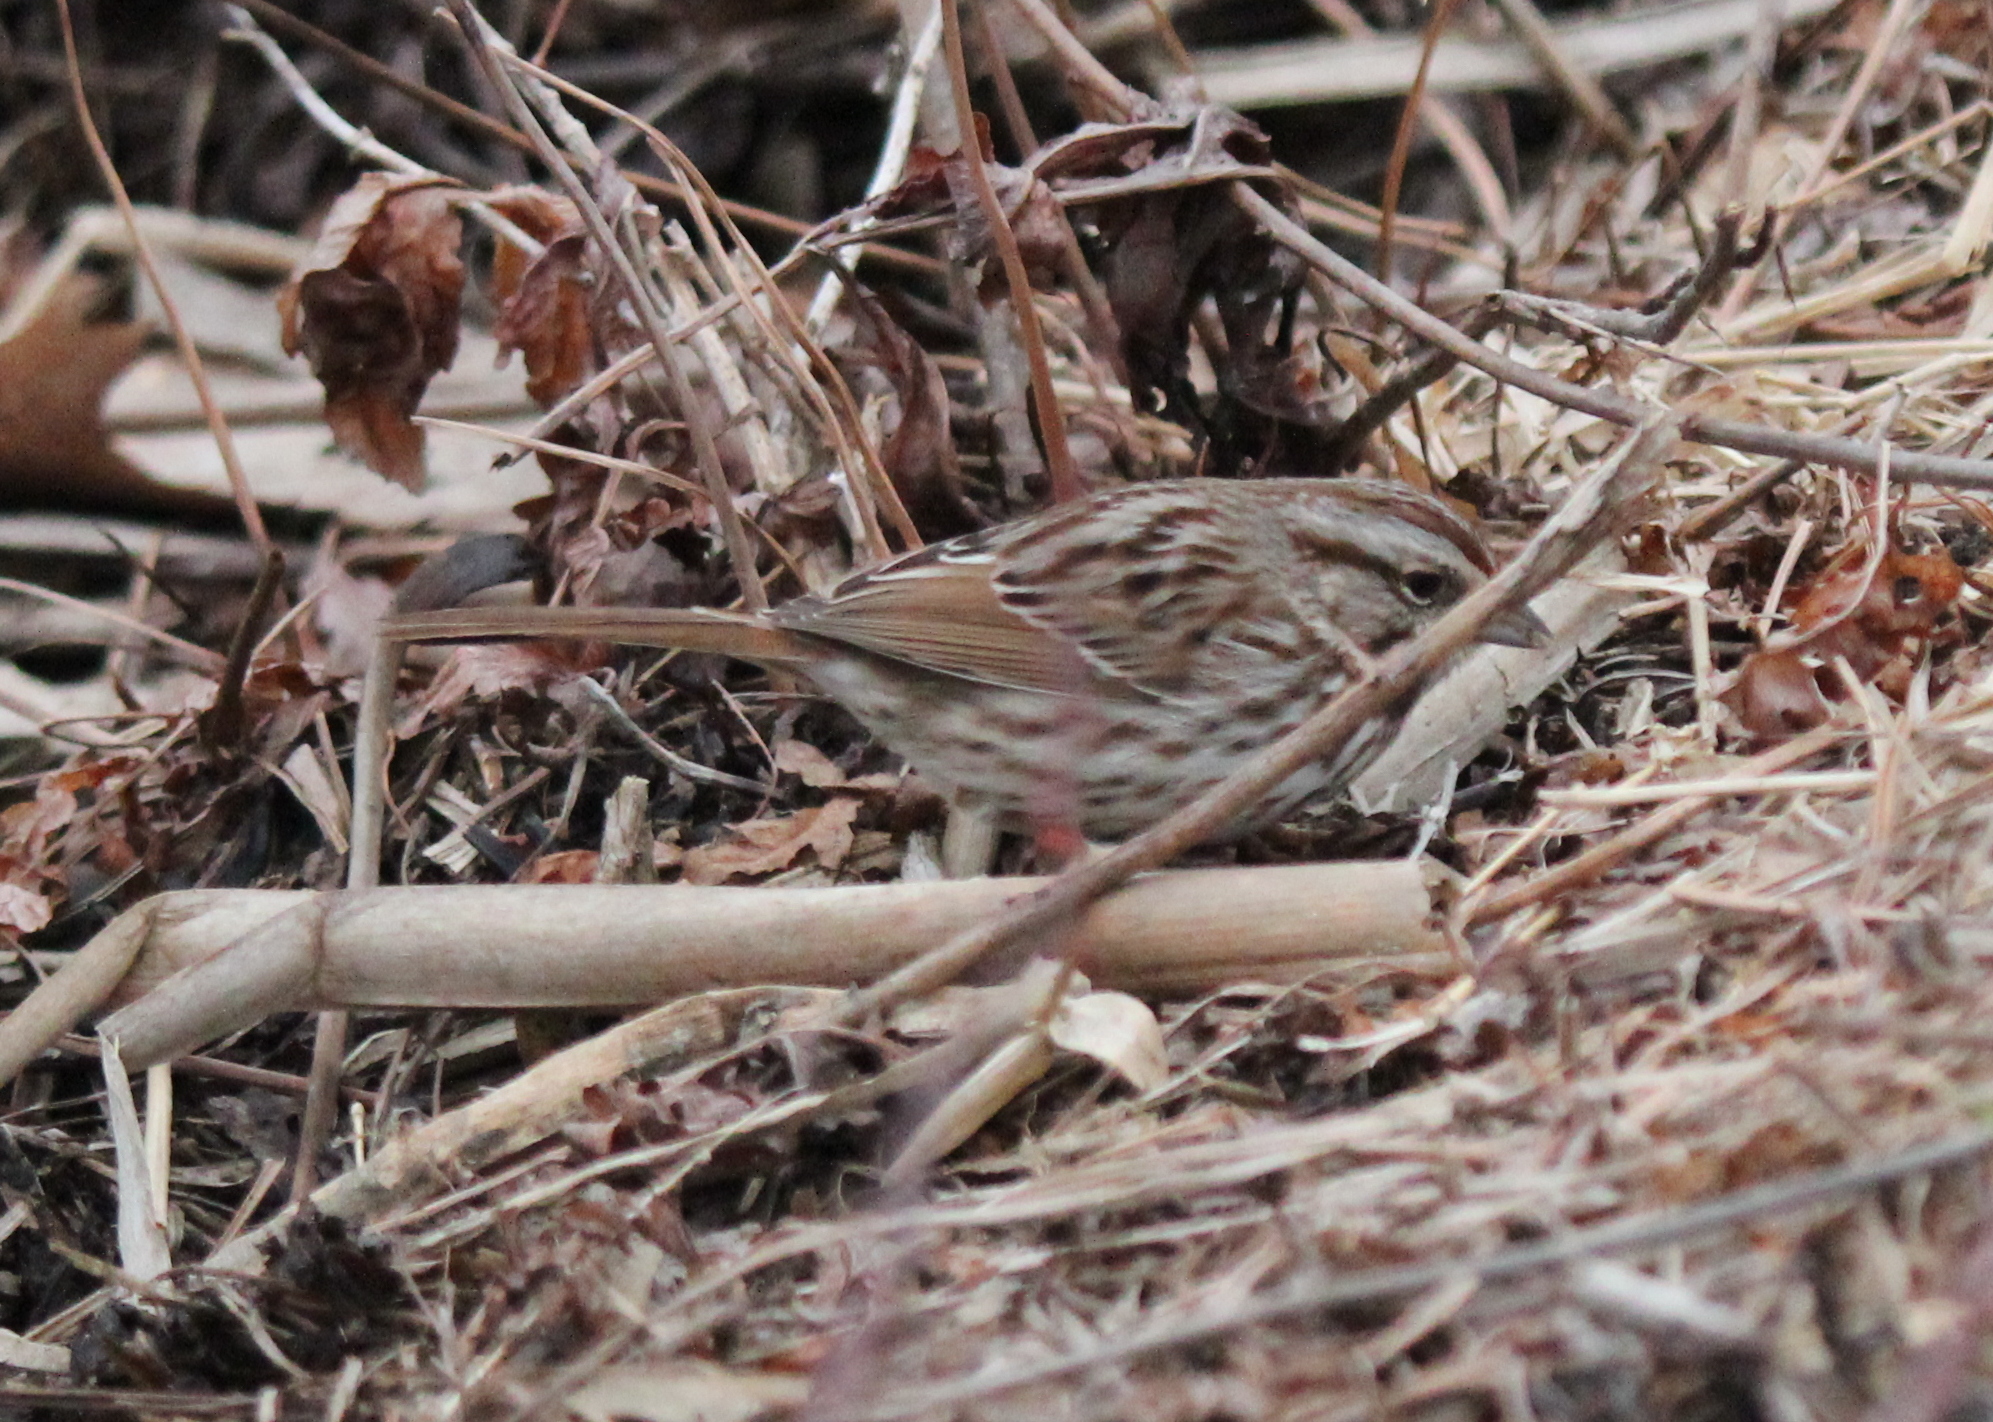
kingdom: Animalia
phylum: Chordata
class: Aves
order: Passeriformes
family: Passerellidae
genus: Melospiza
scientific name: Melospiza melodia
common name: Song sparrow
